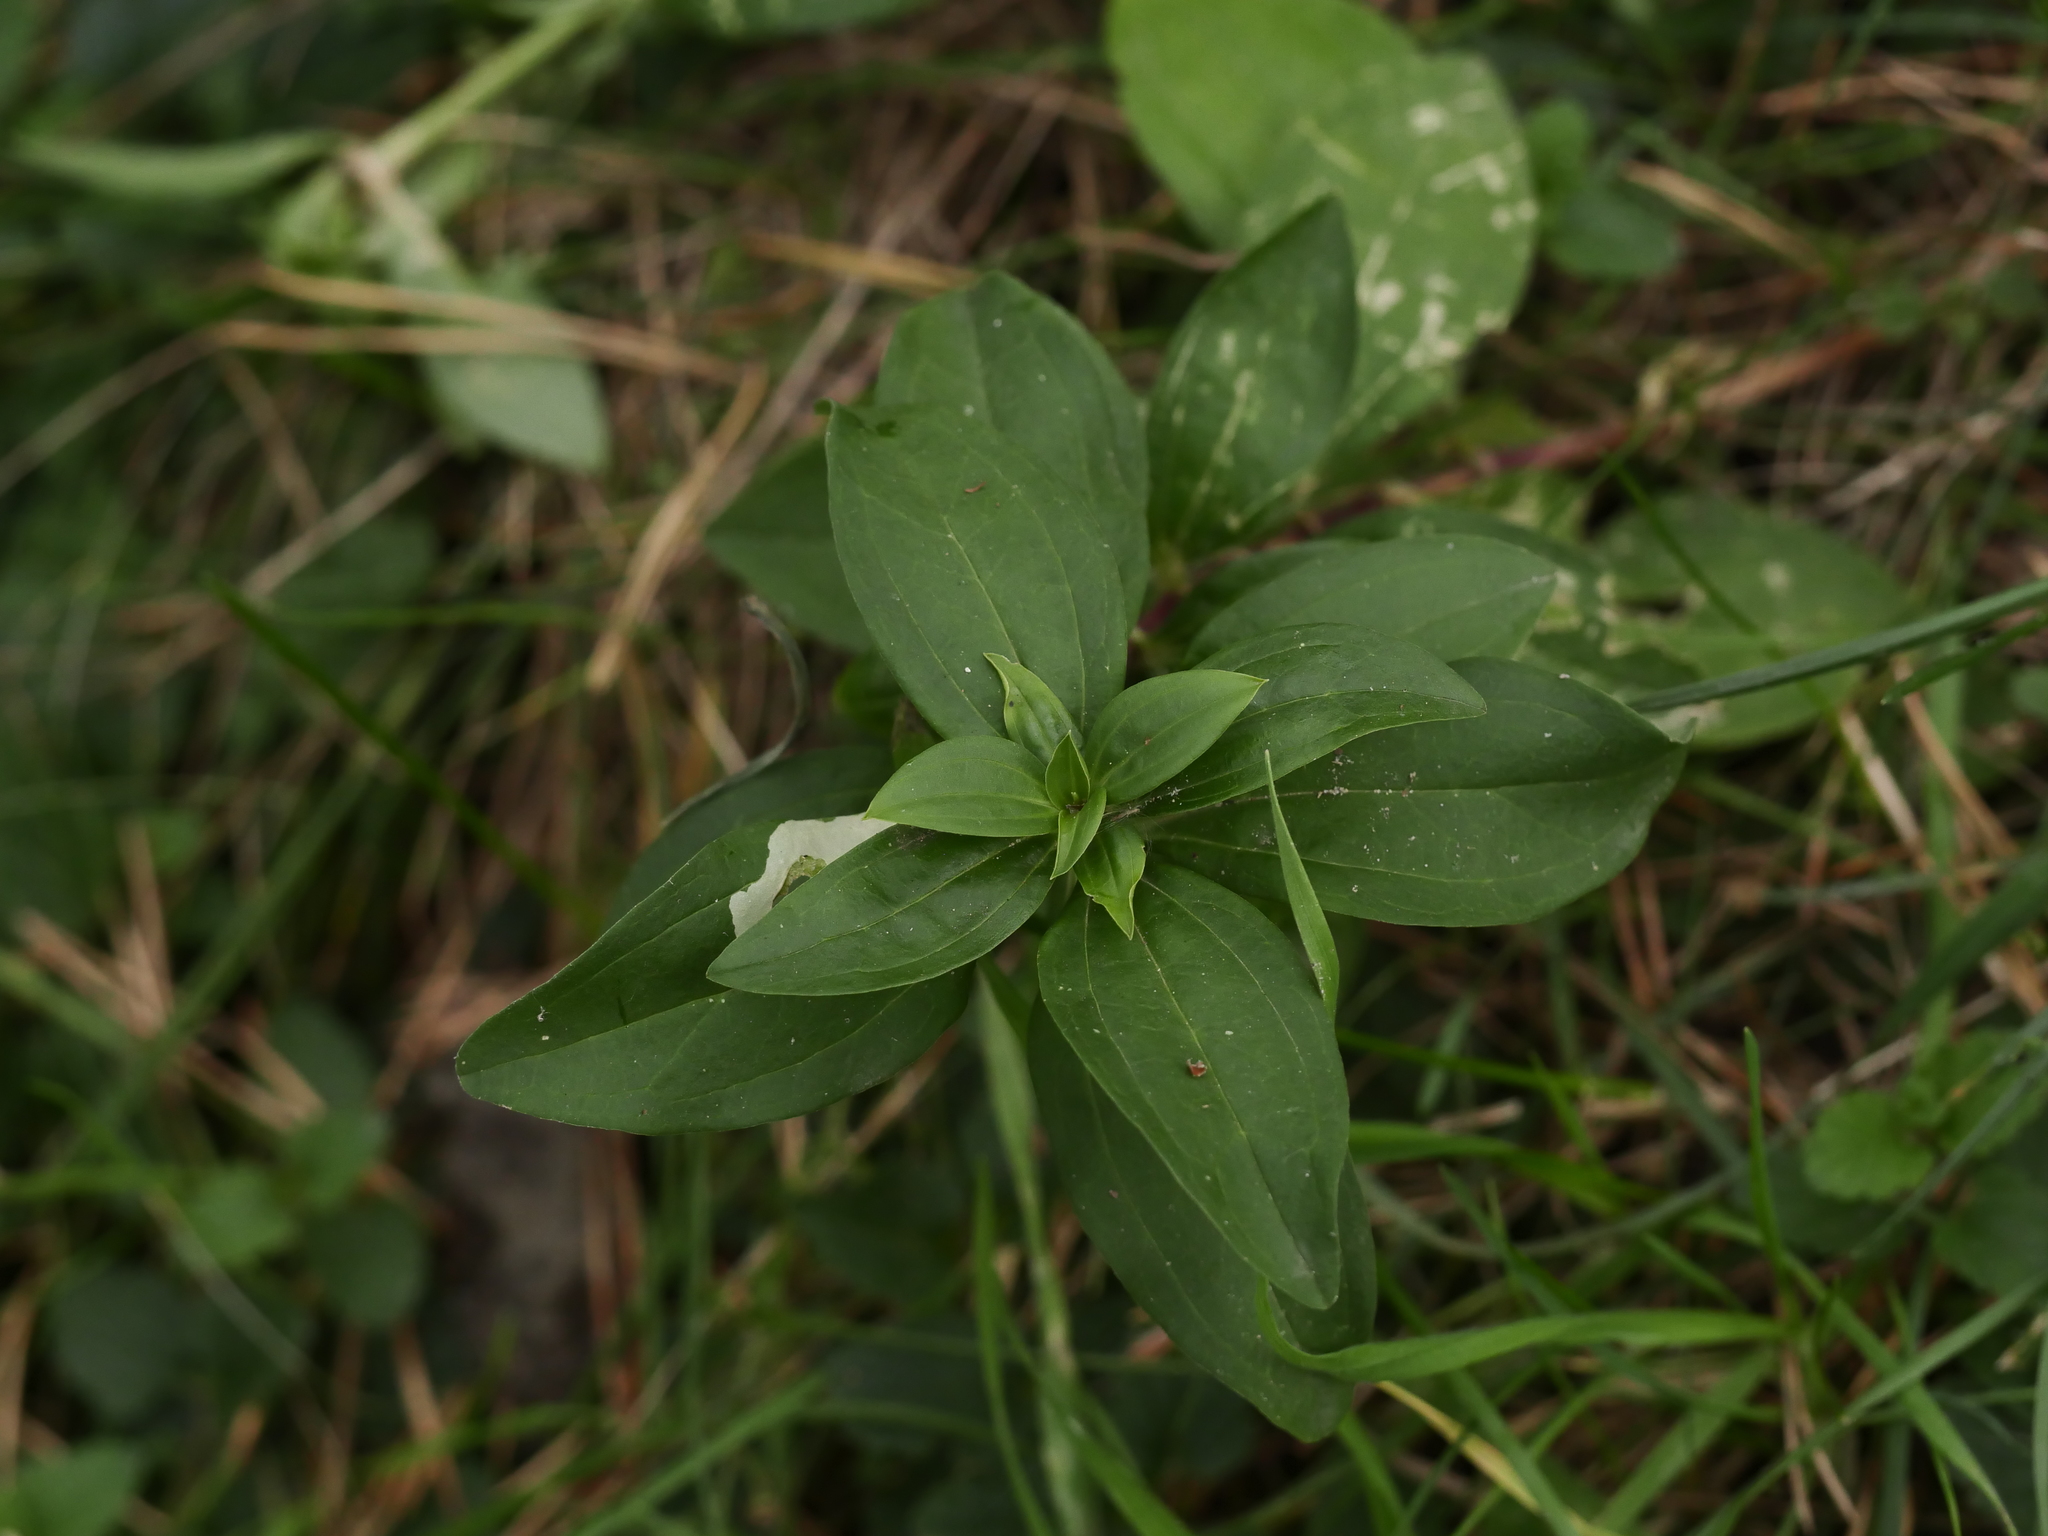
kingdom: Plantae
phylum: Tracheophyta
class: Magnoliopsida
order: Caryophyllales
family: Caryophyllaceae
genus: Saponaria
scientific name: Saponaria officinalis
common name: Soapwort
